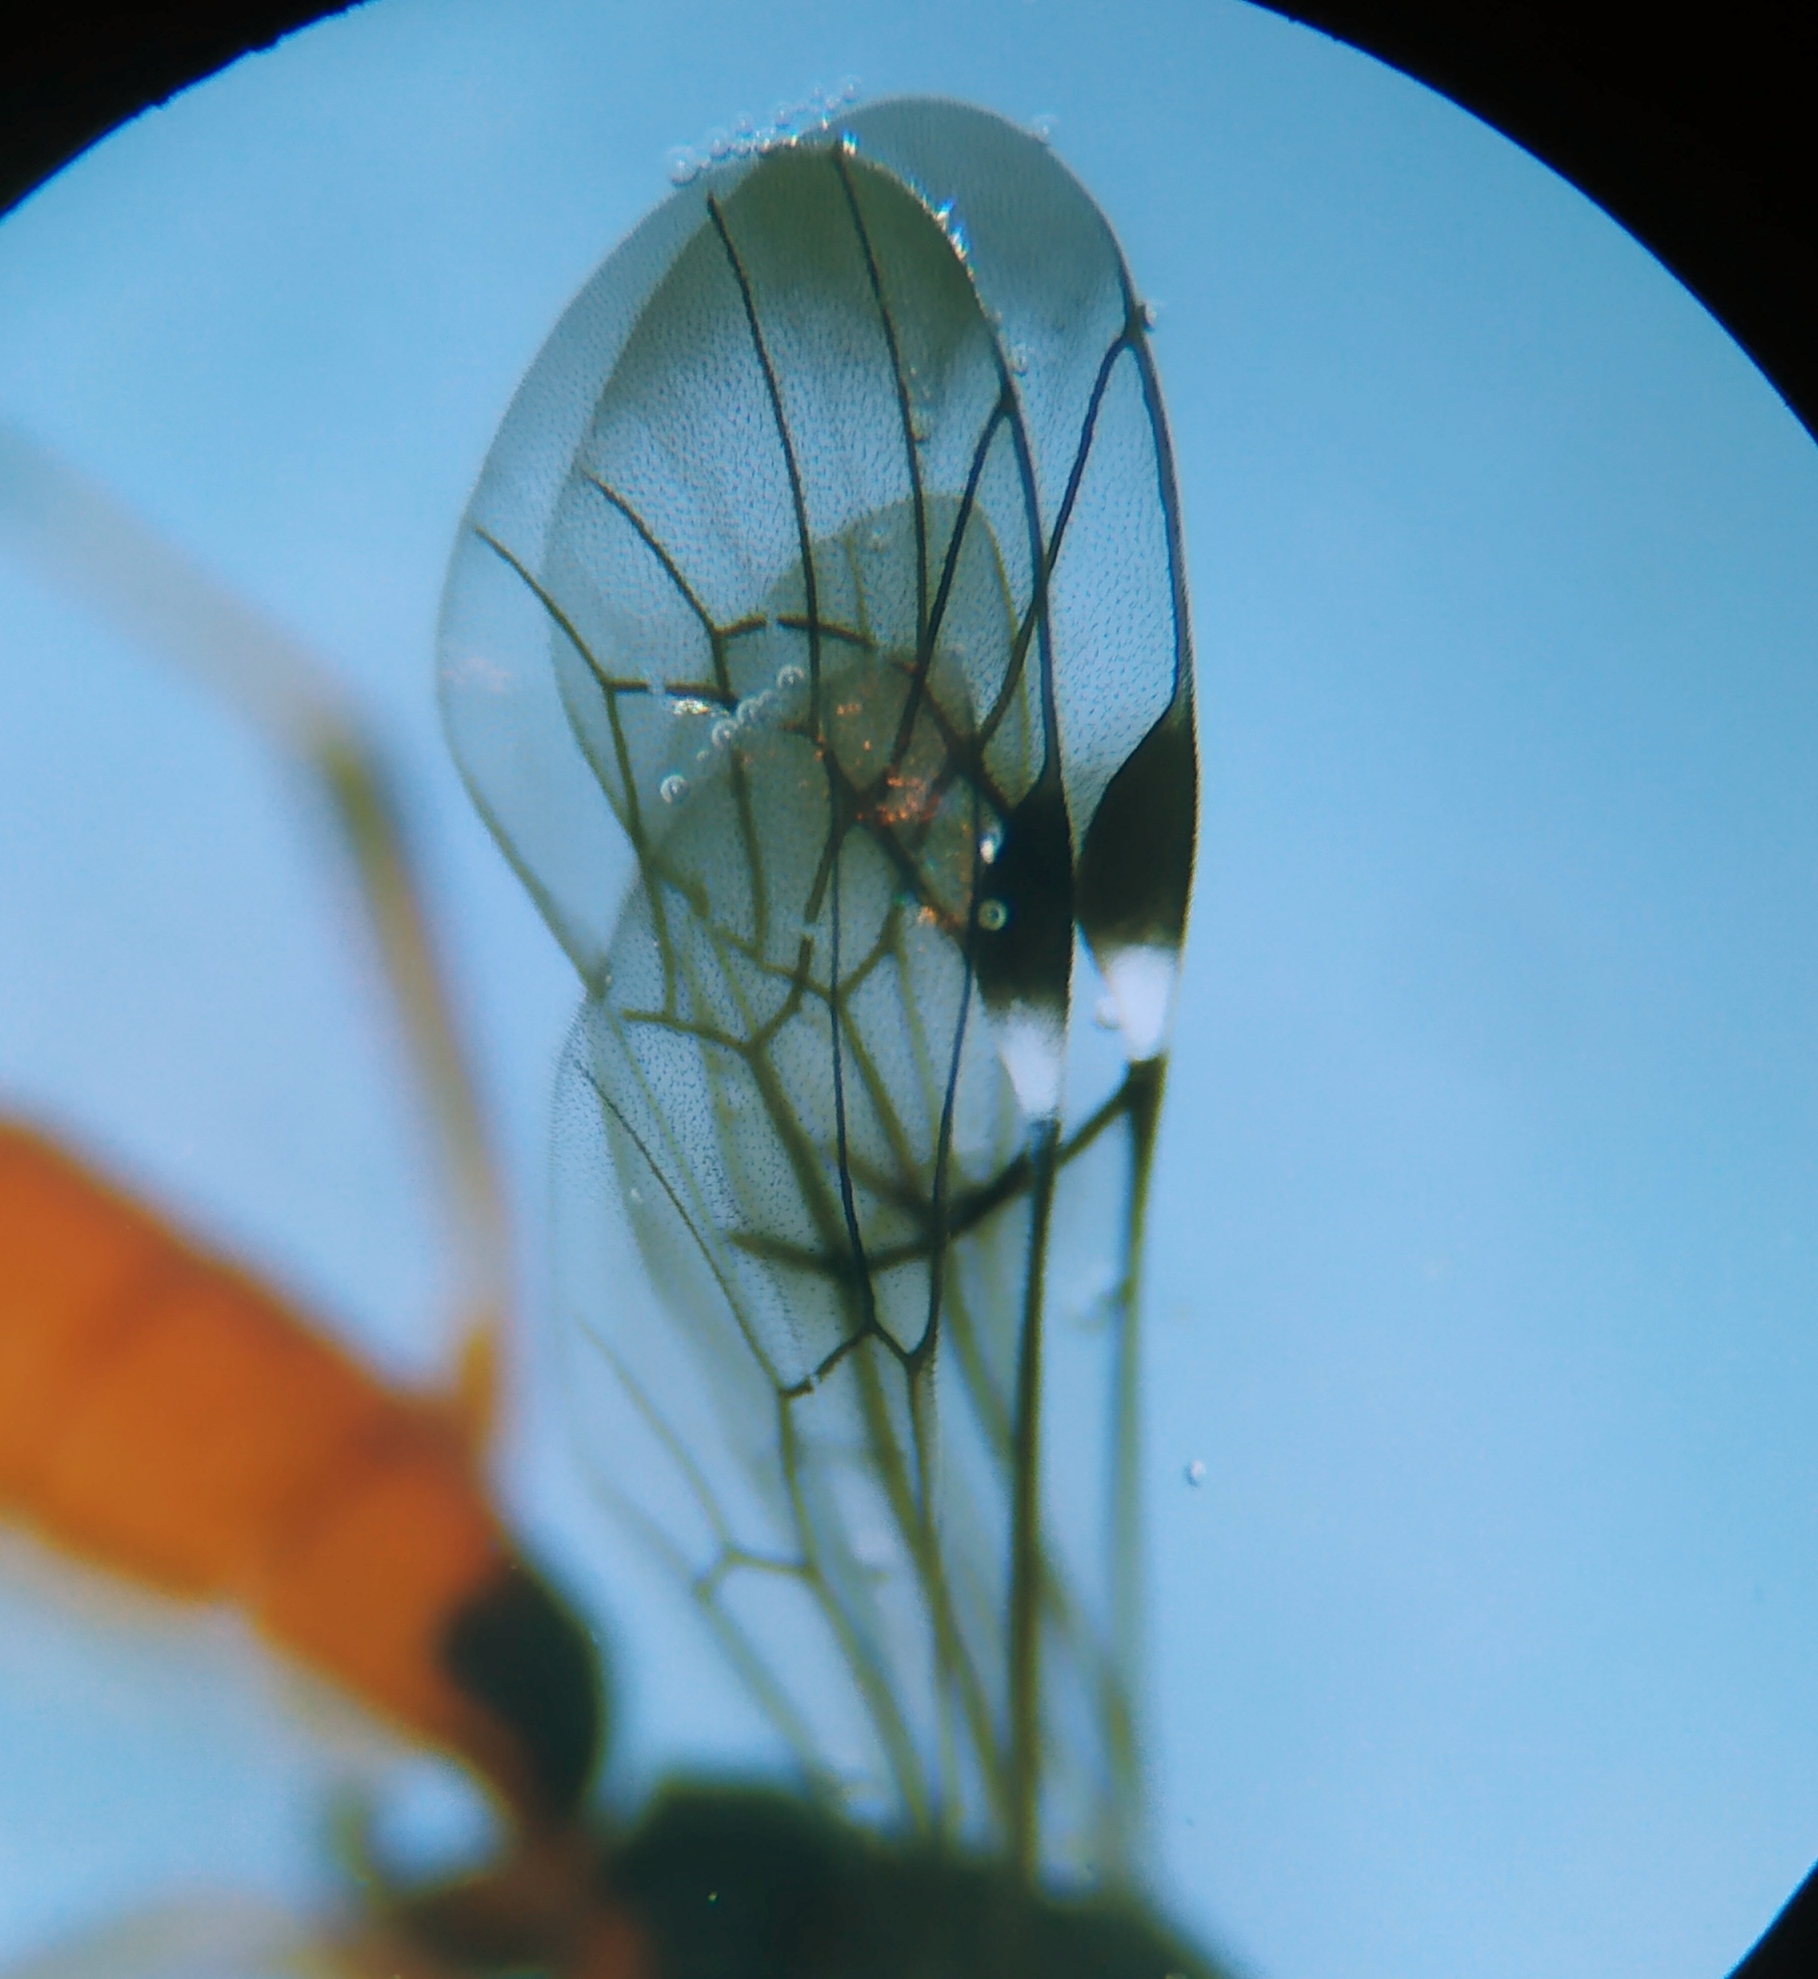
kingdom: Animalia
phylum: Arthropoda
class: Insecta
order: Hymenoptera
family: Ichneumonidae
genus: Xorides
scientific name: Xorides csikii
